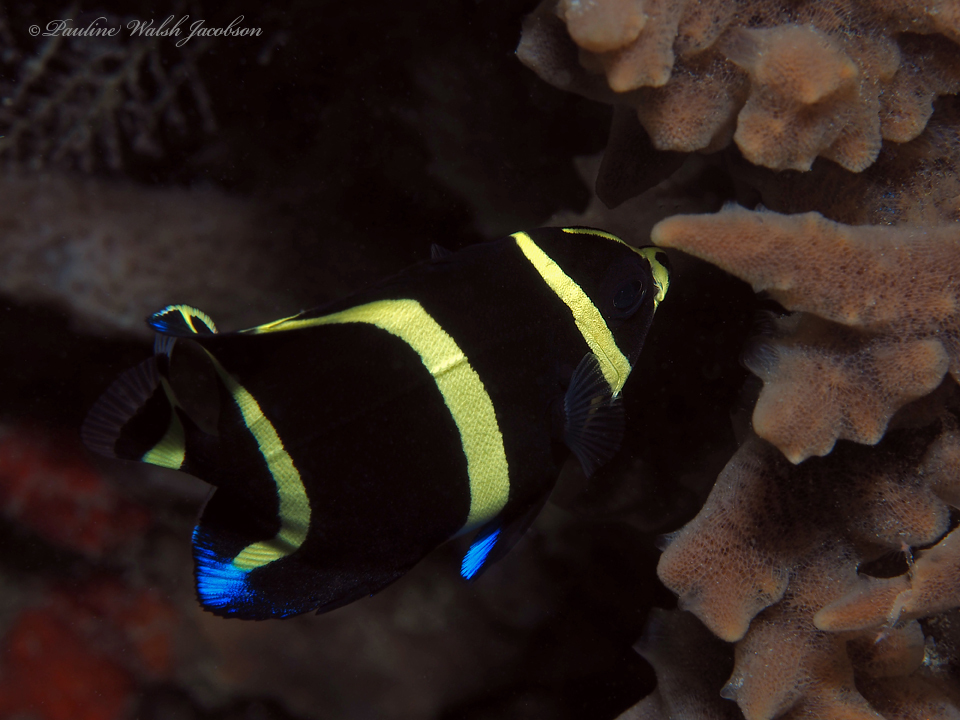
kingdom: Animalia
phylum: Chordata
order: Perciformes
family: Pomacanthidae
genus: Pomacanthus
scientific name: Pomacanthus arcuatus
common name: Gray angelfish
